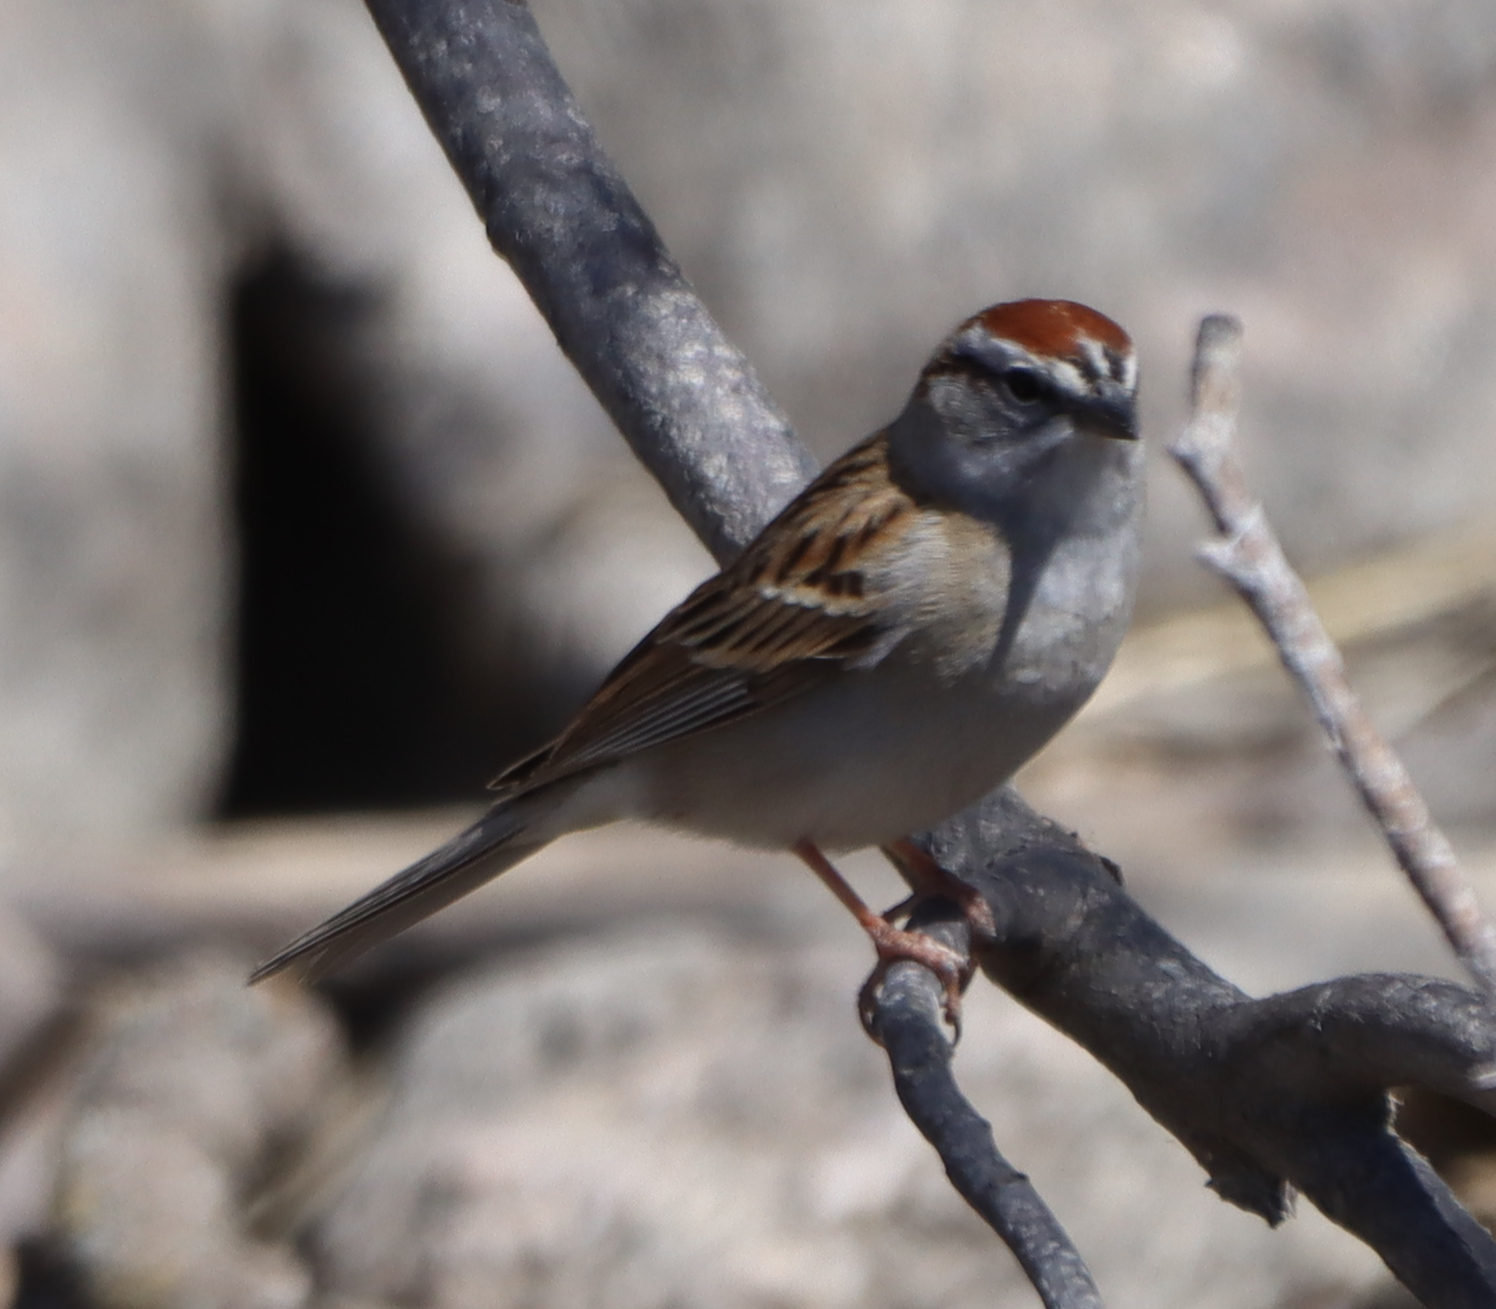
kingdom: Animalia
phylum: Chordata
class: Aves
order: Passeriformes
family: Passerellidae
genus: Spizella
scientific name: Spizella passerina
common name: Chipping sparrow
